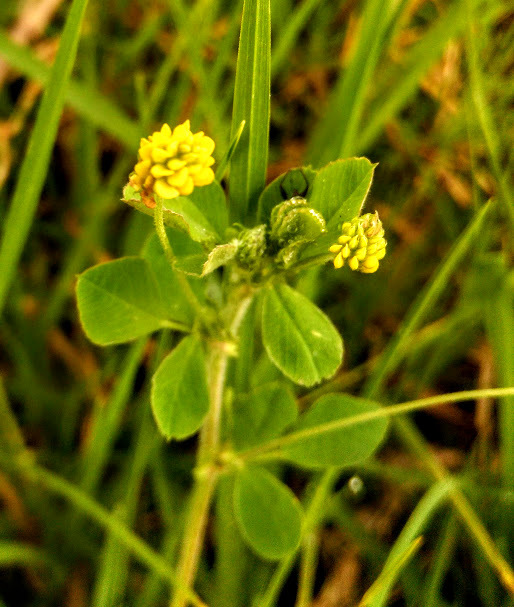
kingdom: Plantae
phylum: Tracheophyta
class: Magnoliopsida
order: Fabales
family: Fabaceae
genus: Medicago
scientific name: Medicago lupulina
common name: Black medick
